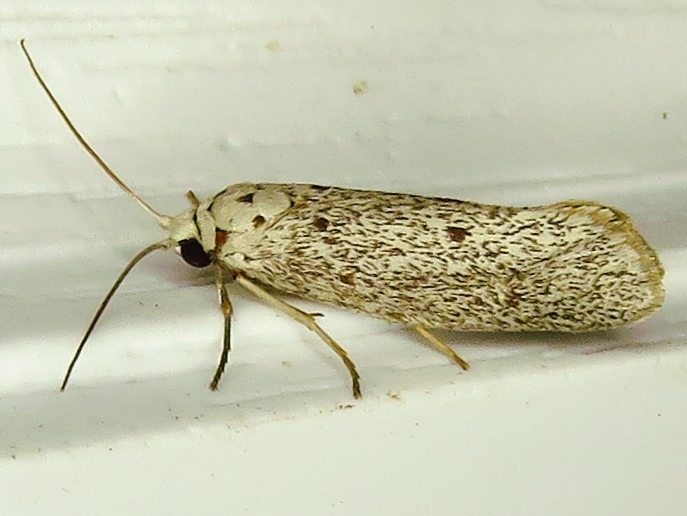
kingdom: Animalia
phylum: Arthropoda
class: Insecta
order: Lepidoptera
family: Lacturidae
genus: Lactura
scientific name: Lactura
